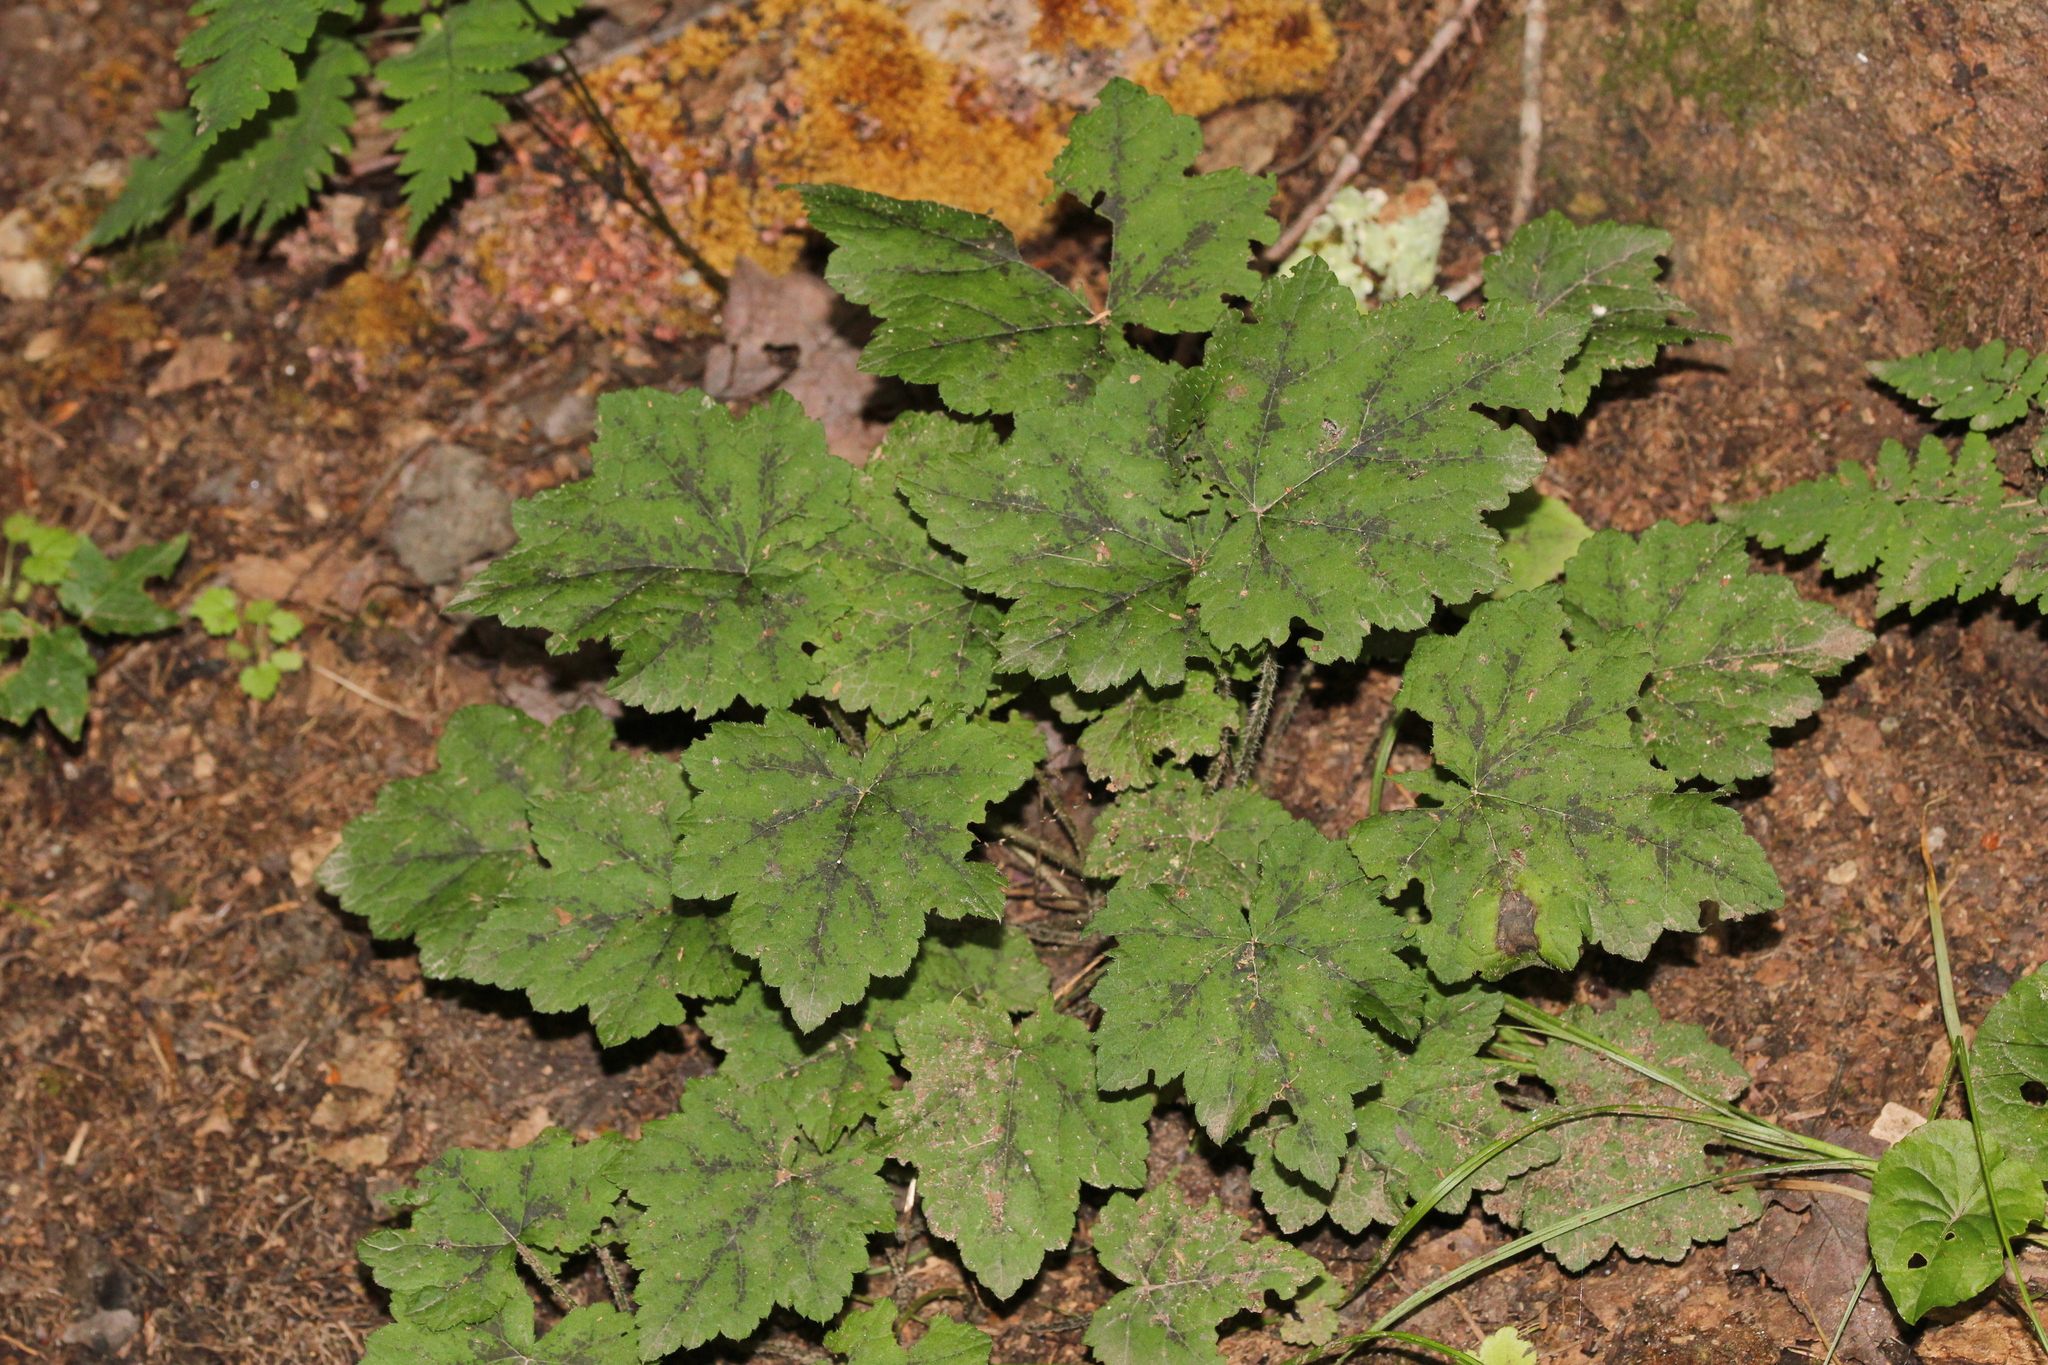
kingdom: Plantae
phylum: Tracheophyta
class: Magnoliopsida
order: Saxifragales
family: Saxifragaceae
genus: Tiarella
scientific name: Tiarella stolonifera
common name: Stoloniferous foamflower
